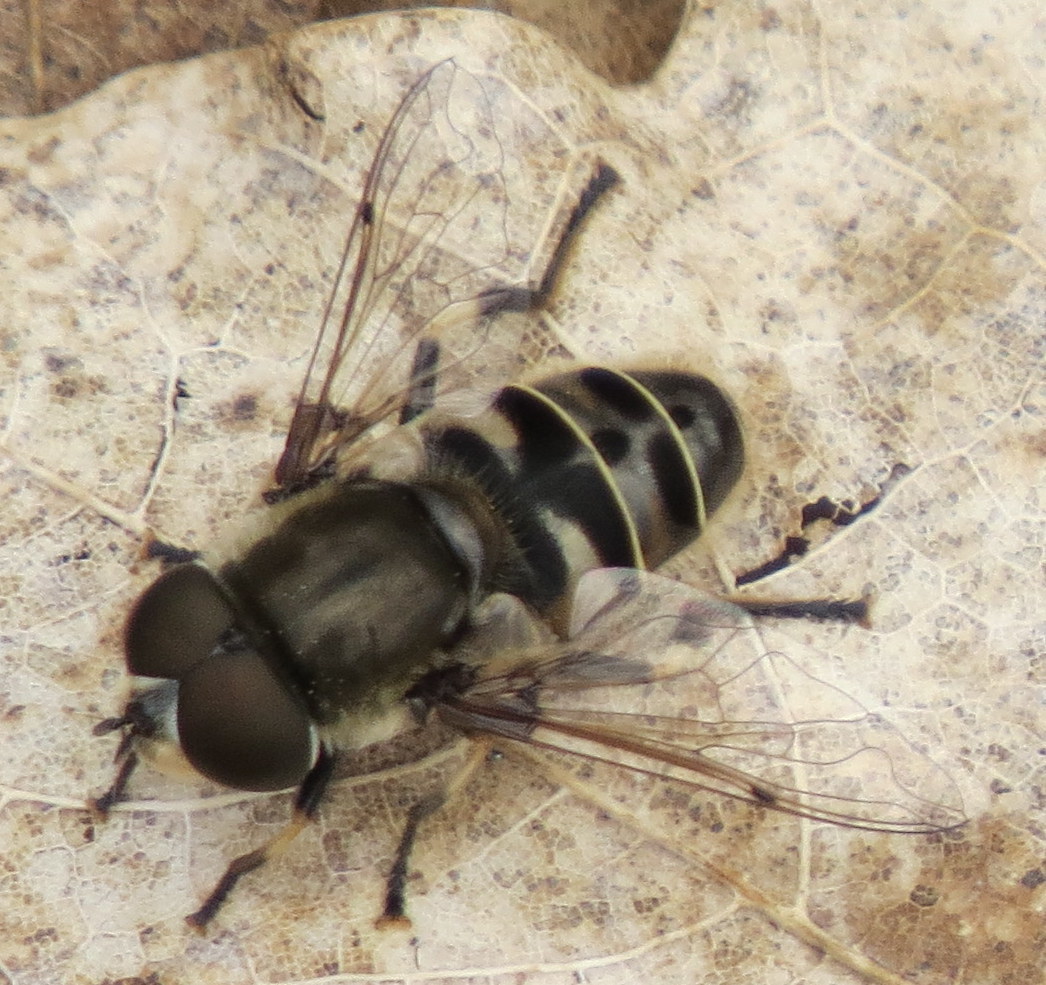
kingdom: Animalia
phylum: Arthropoda
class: Insecta
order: Diptera
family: Syrphidae
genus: Eristalis
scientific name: Eristalis dimidiata
